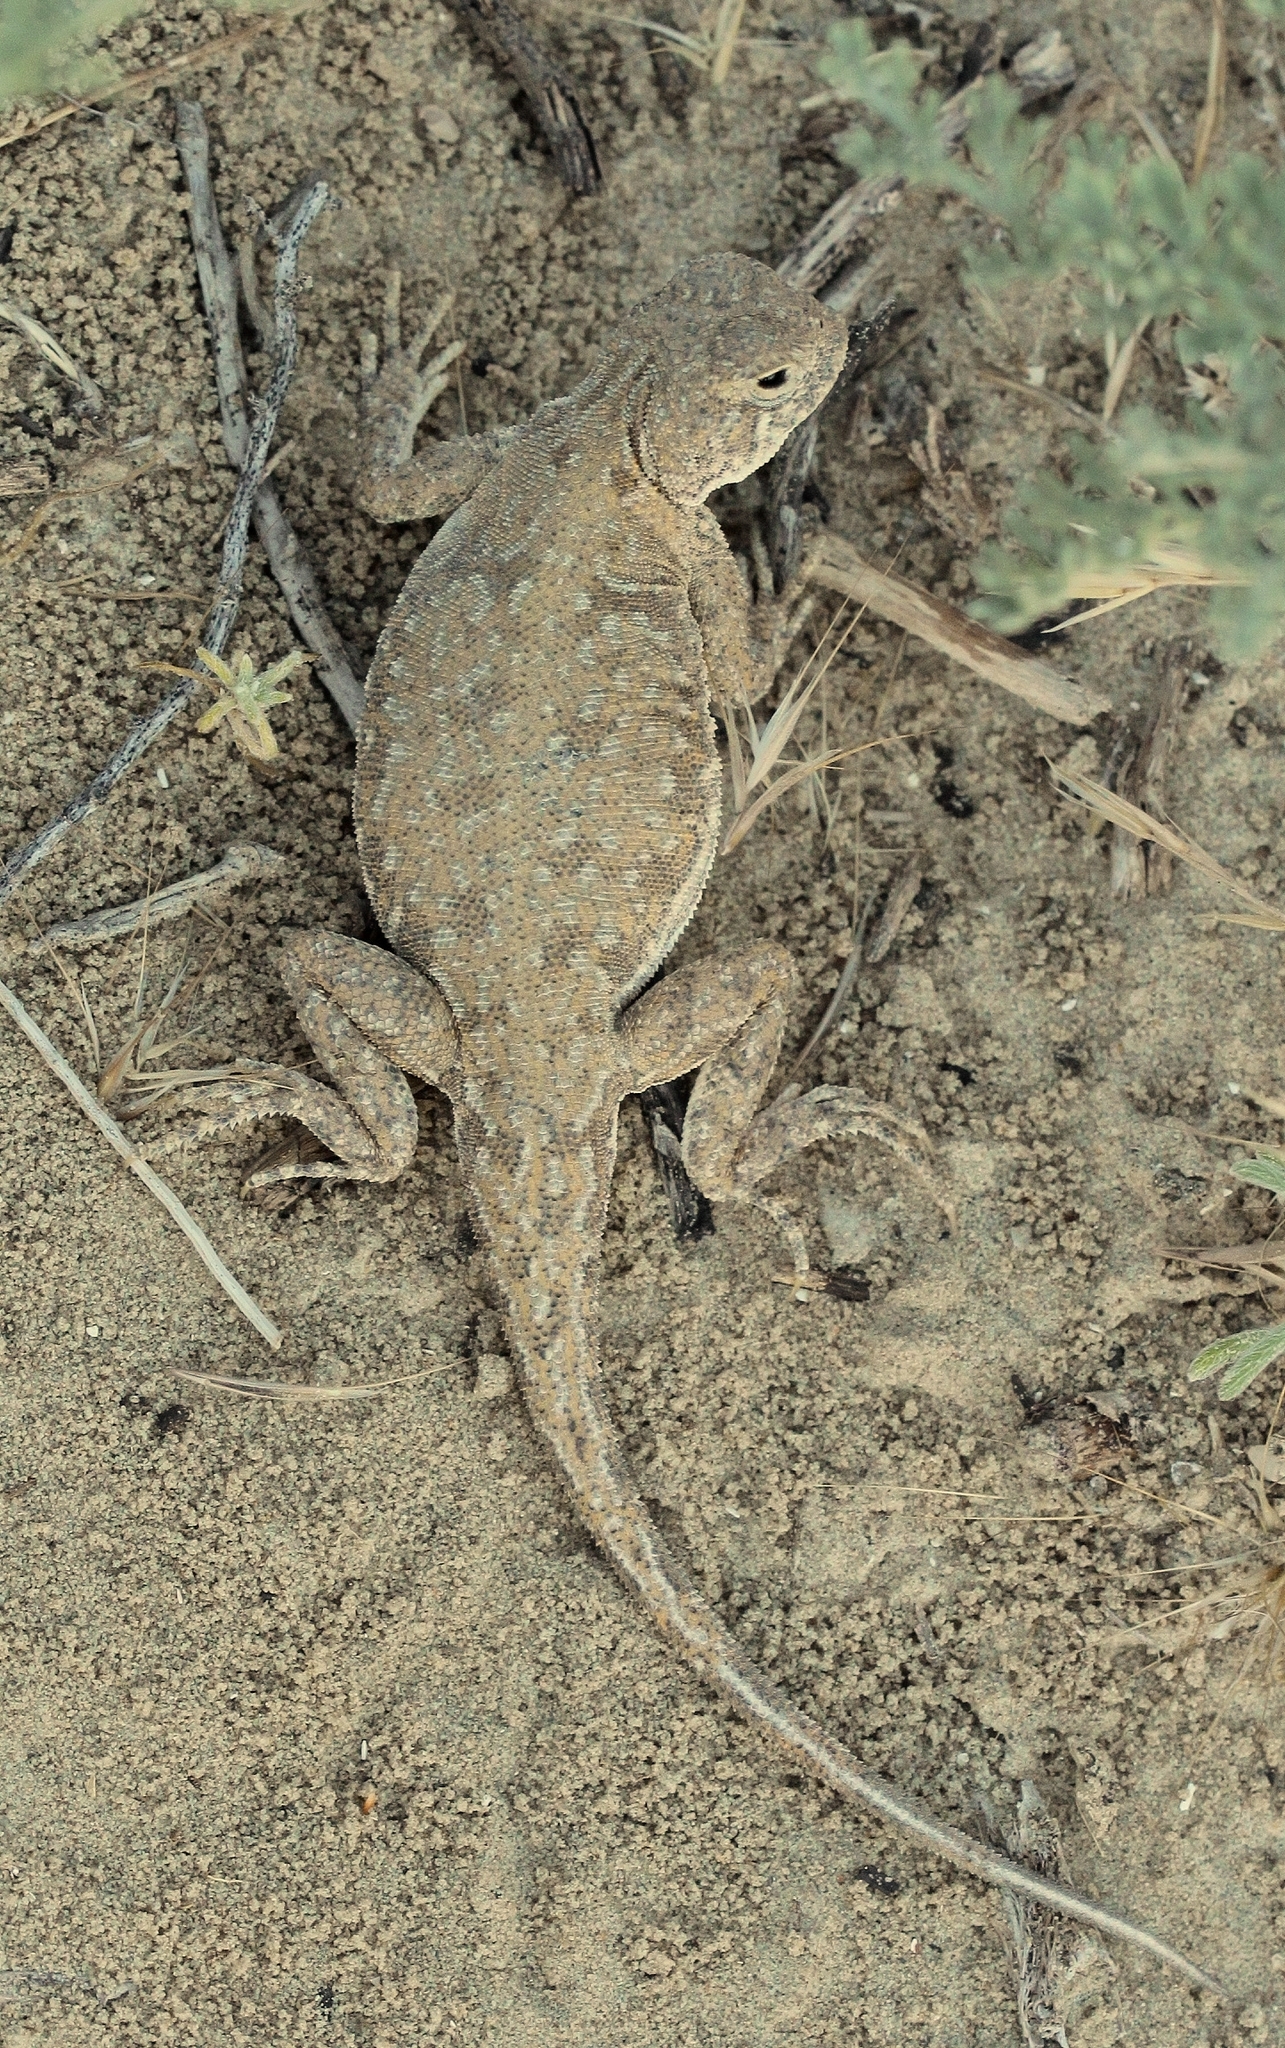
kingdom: Animalia
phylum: Chordata
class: Squamata
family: Agamidae
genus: Phrynocephalus
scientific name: Phrynocephalus guttatus
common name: Spotted toadhead agama
